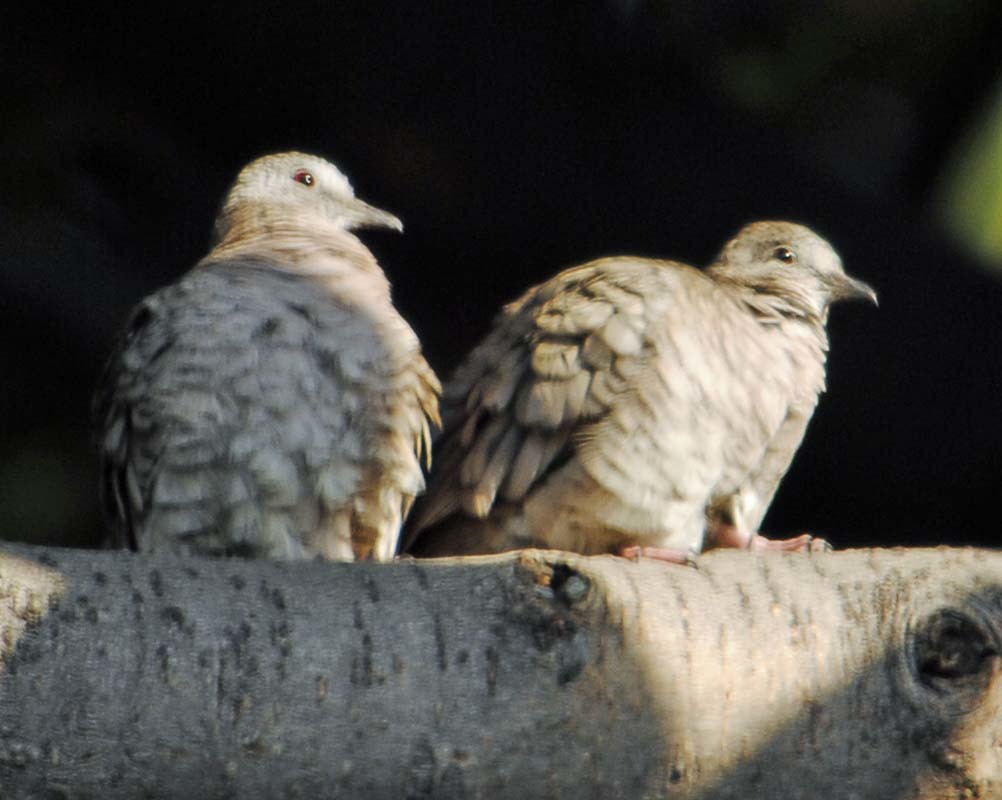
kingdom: Animalia
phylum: Chordata
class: Aves
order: Columbiformes
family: Columbidae
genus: Columbina
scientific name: Columbina inca
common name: Inca dove
